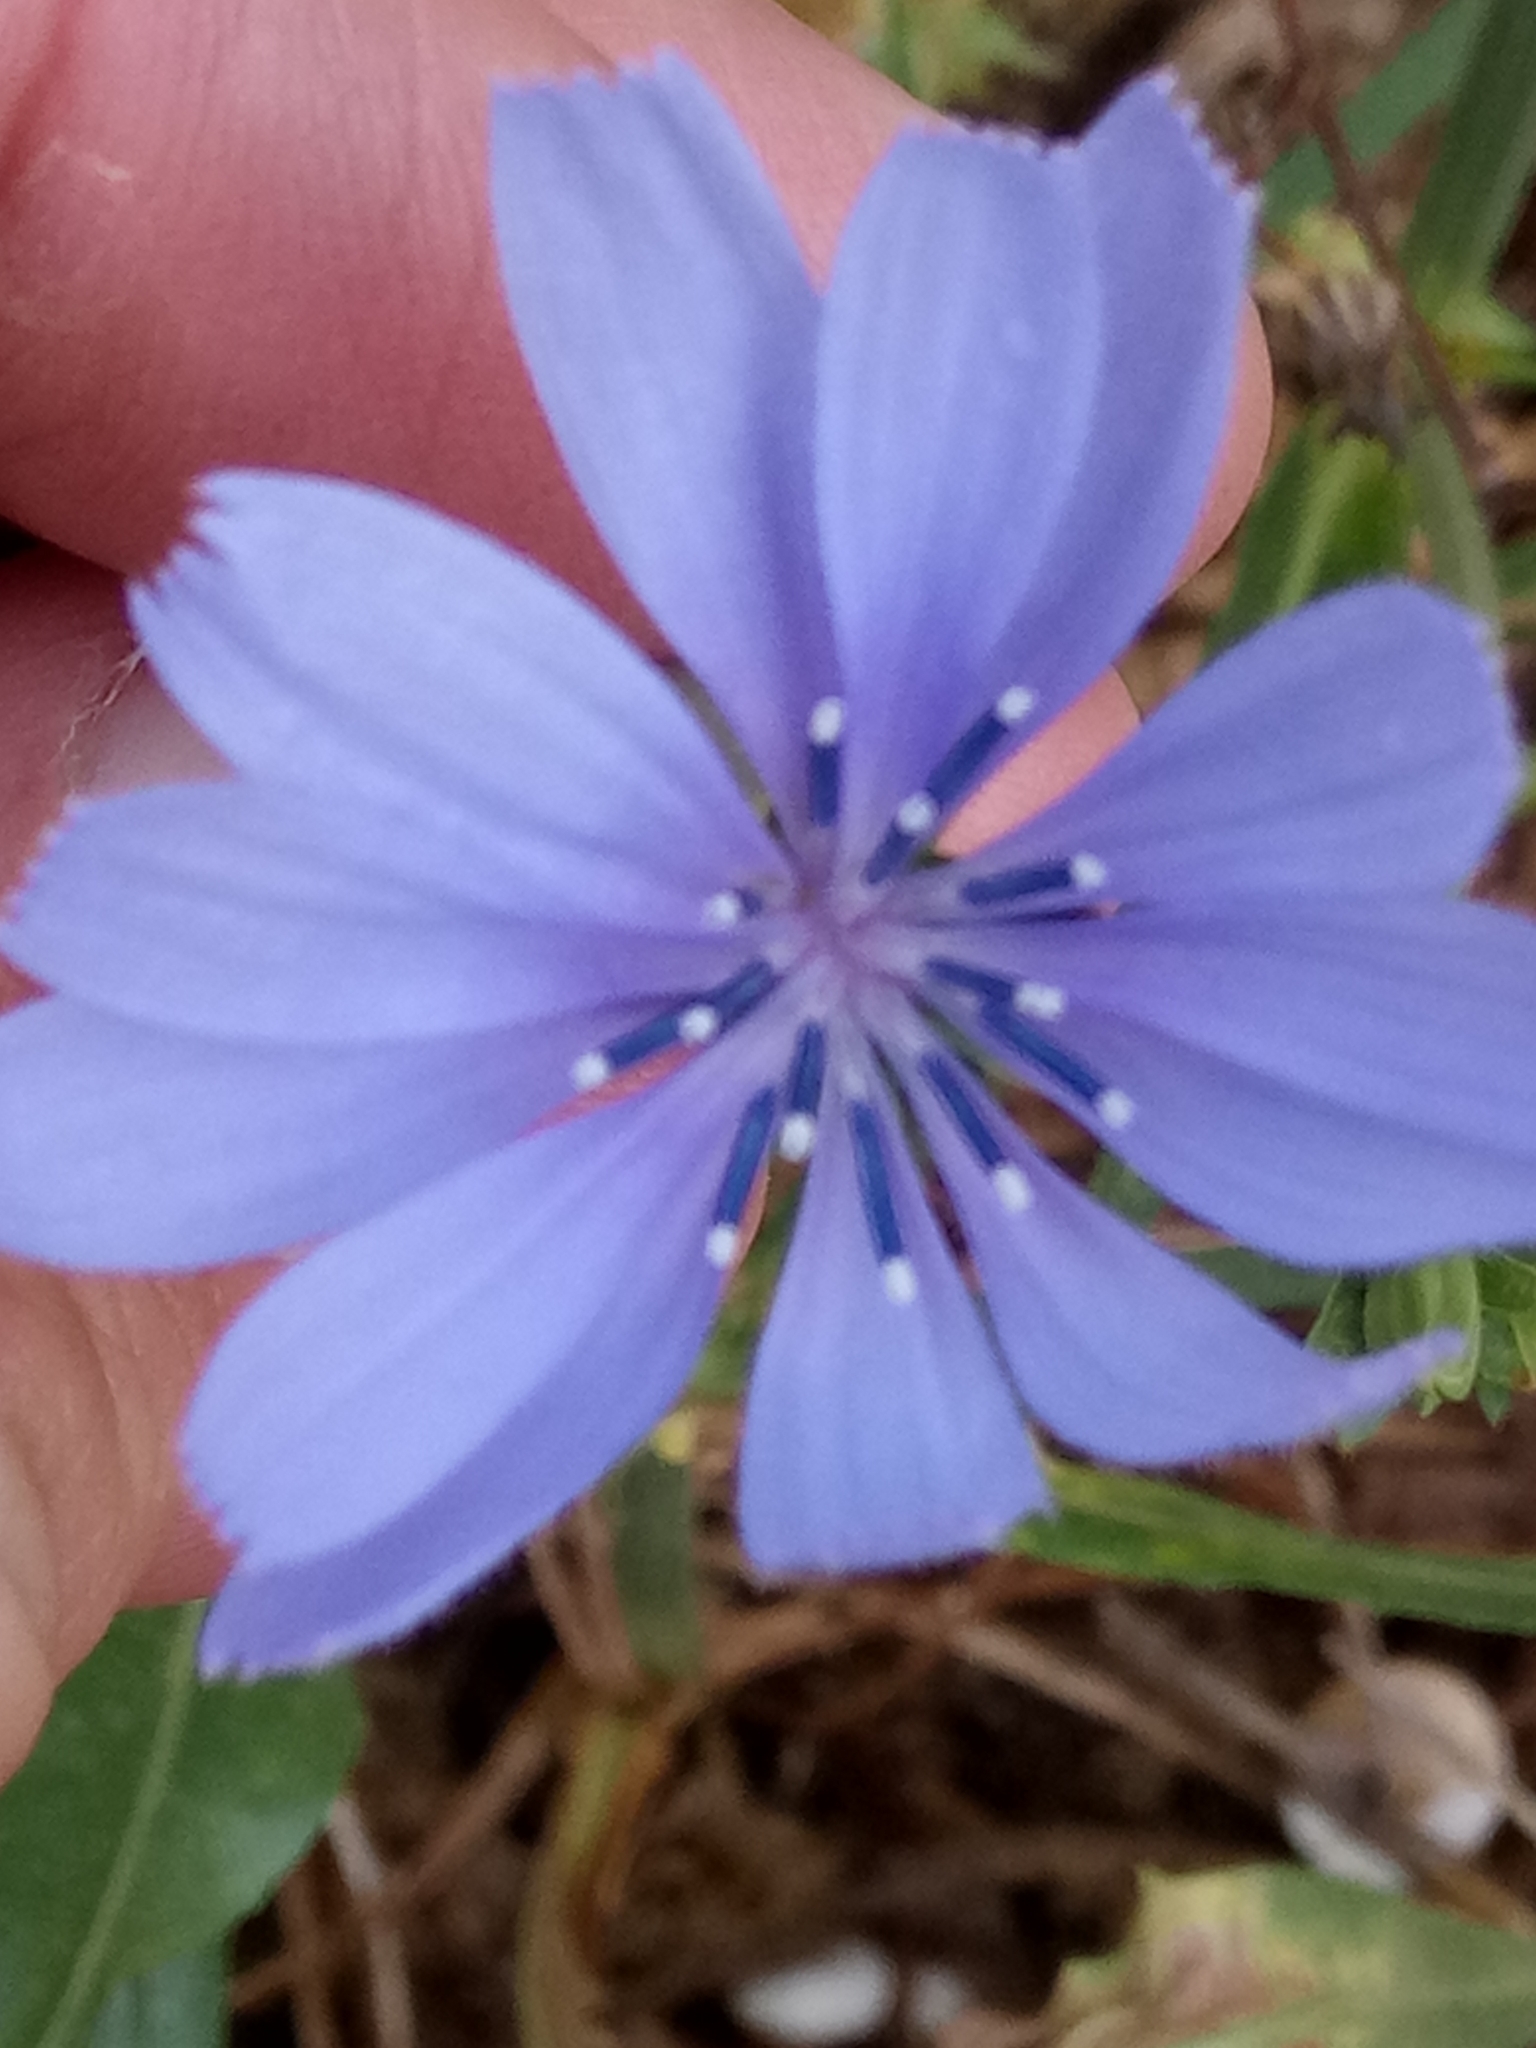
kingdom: Plantae
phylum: Tracheophyta
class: Magnoliopsida
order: Asterales
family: Asteraceae
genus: Cichorium
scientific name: Cichorium intybus
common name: Chicory
